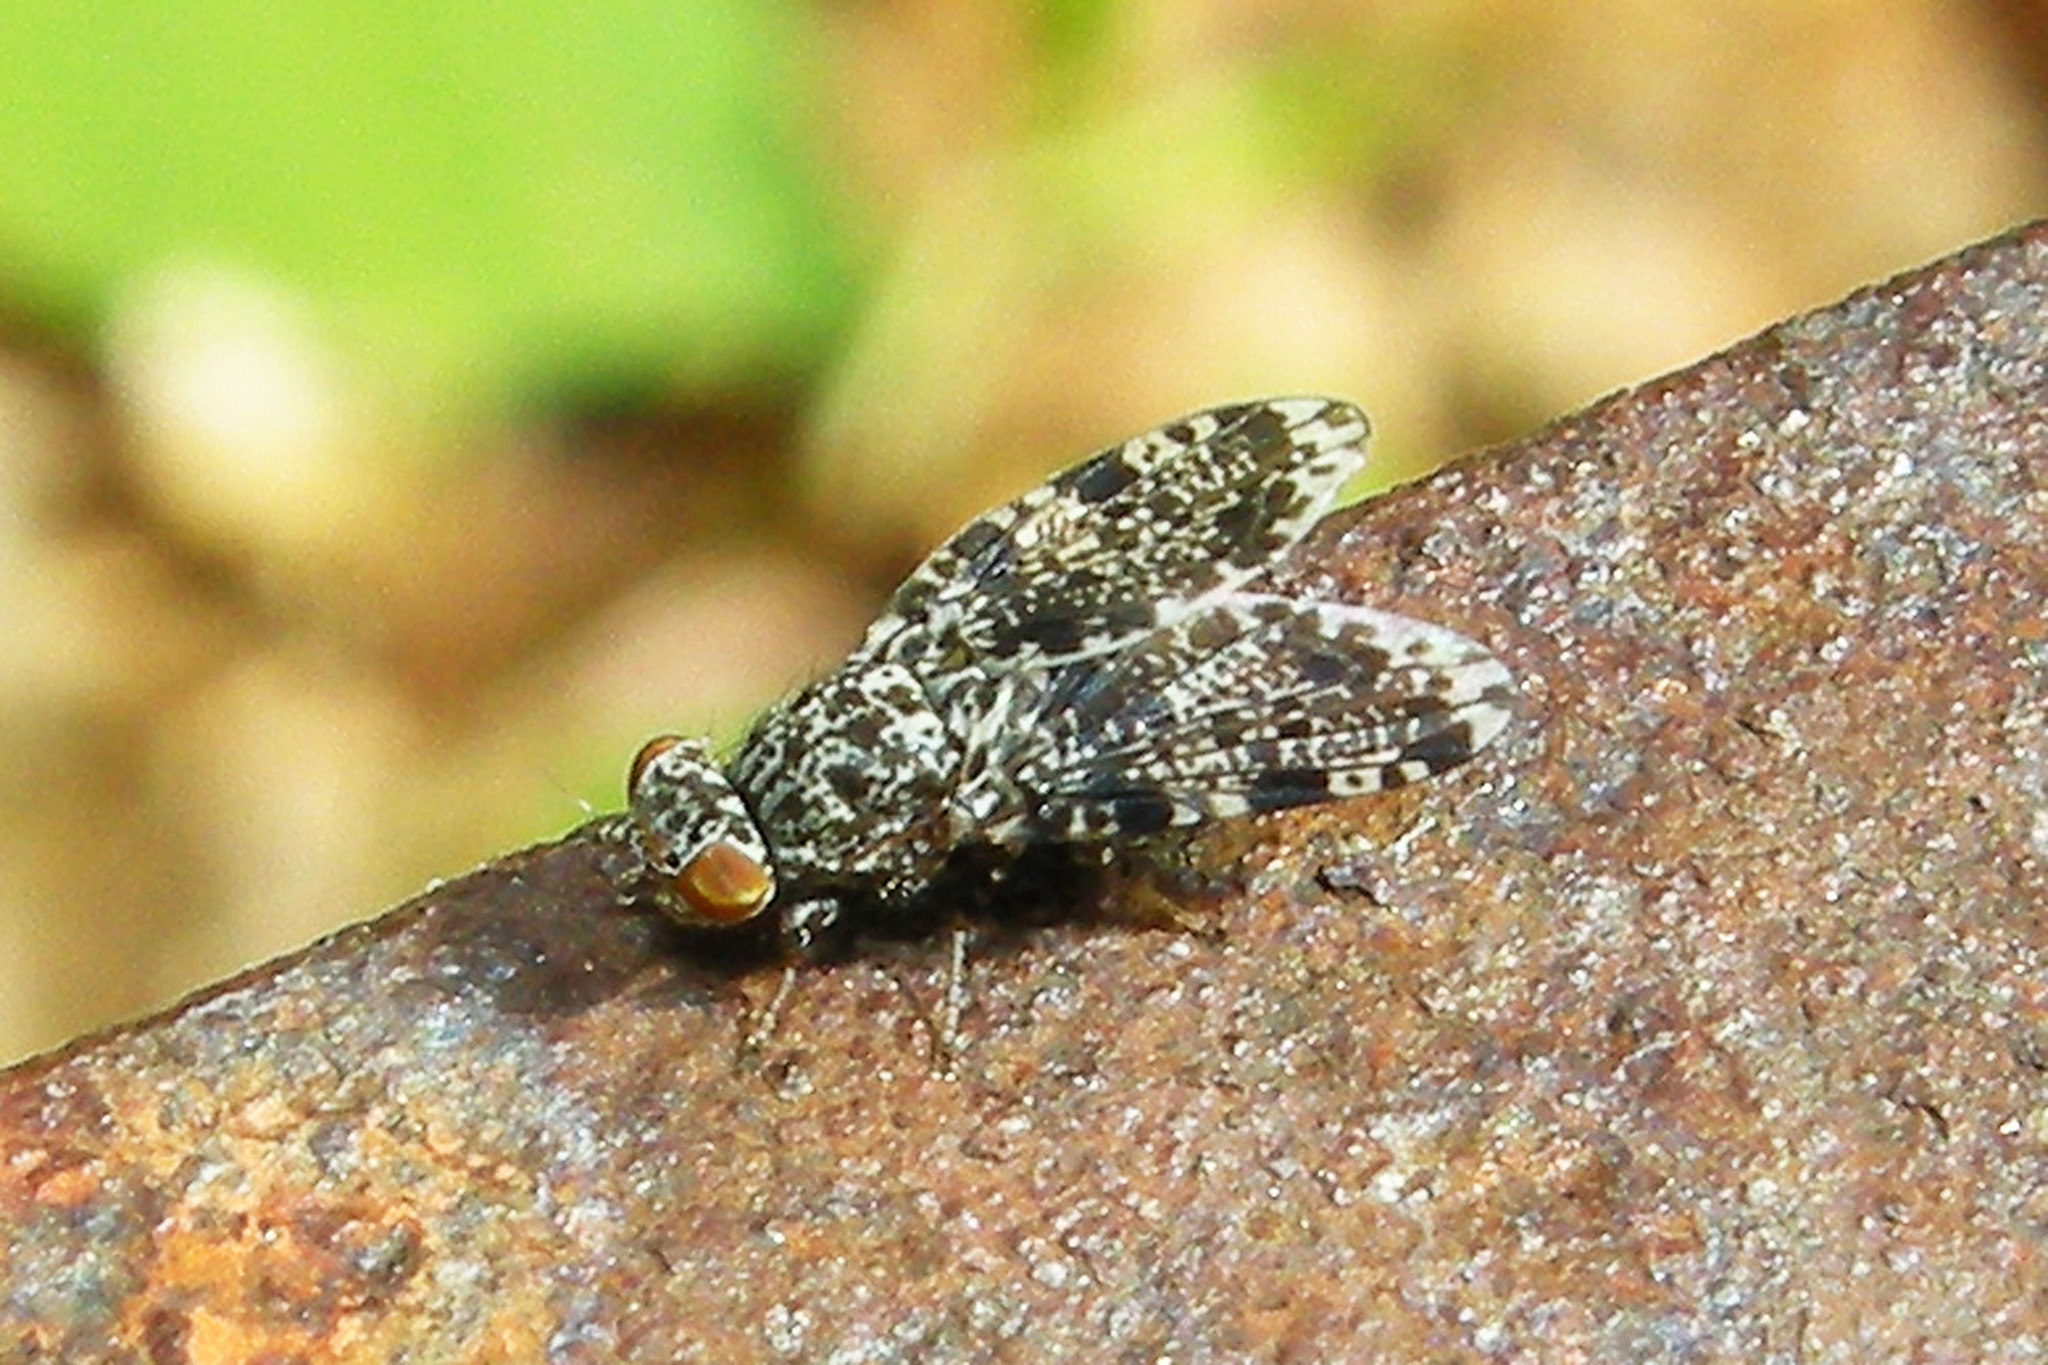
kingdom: Animalia
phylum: Arthropoda
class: Insecta
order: Diptera
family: Ulidiidae
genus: Callopistromyia
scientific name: Callopistromyia annulipes
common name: Peacock fly
